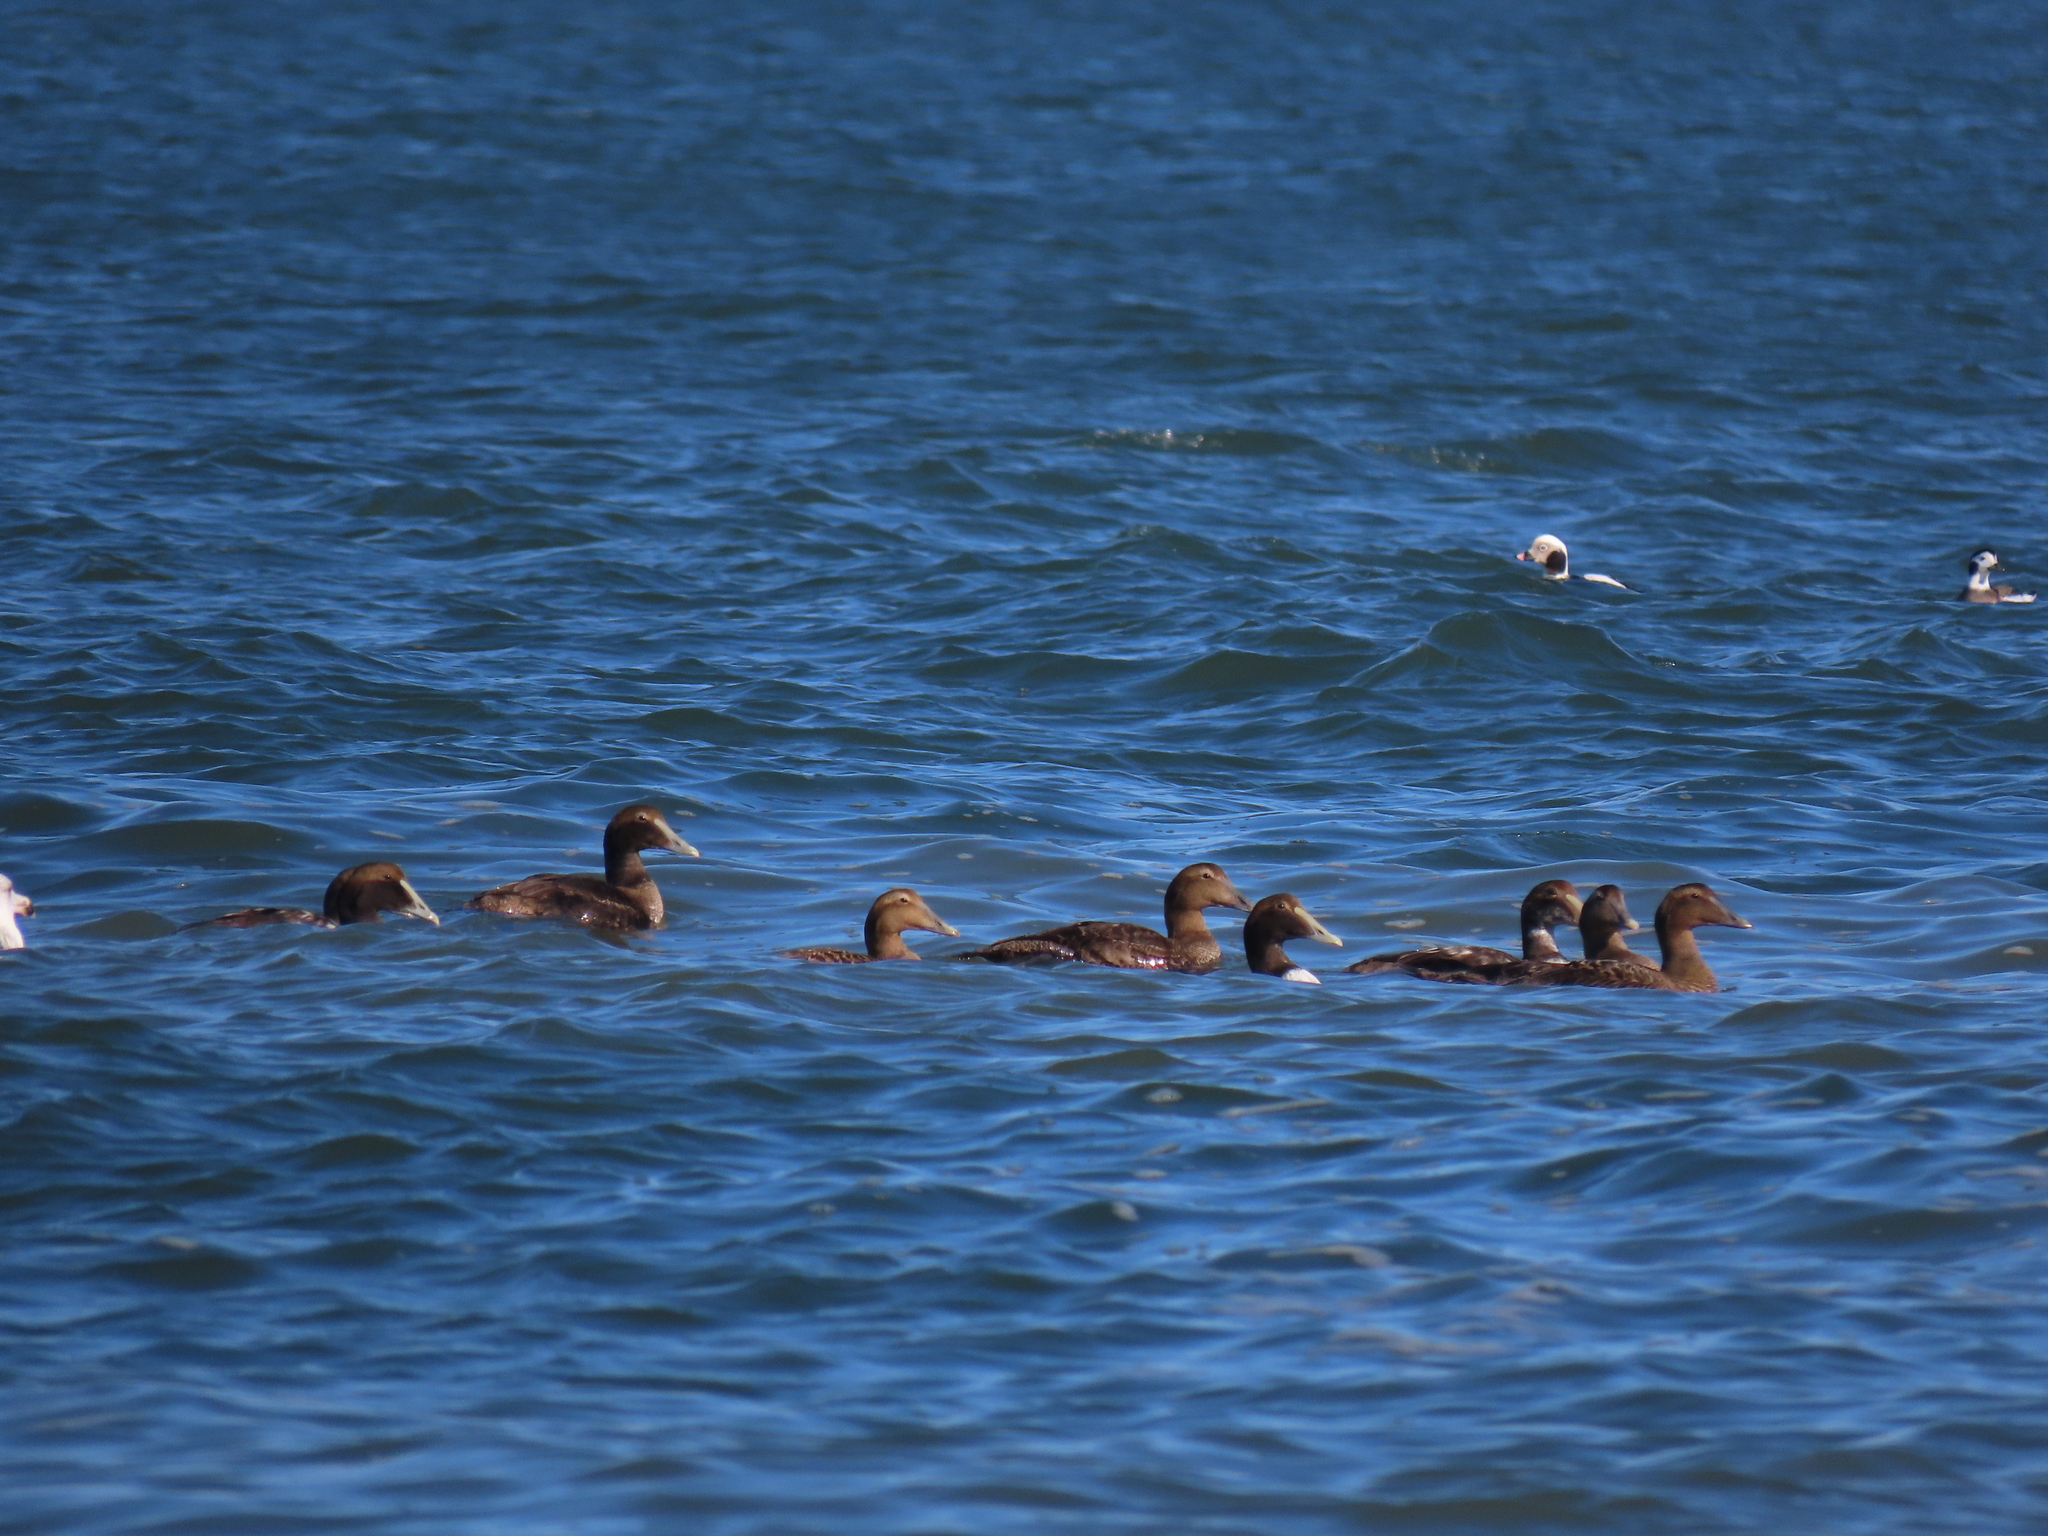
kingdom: Animalia
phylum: Chordata
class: Aves
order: Anseriformes
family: Anatidae
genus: Somateria
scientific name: Somateria mollissima
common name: Common eider
